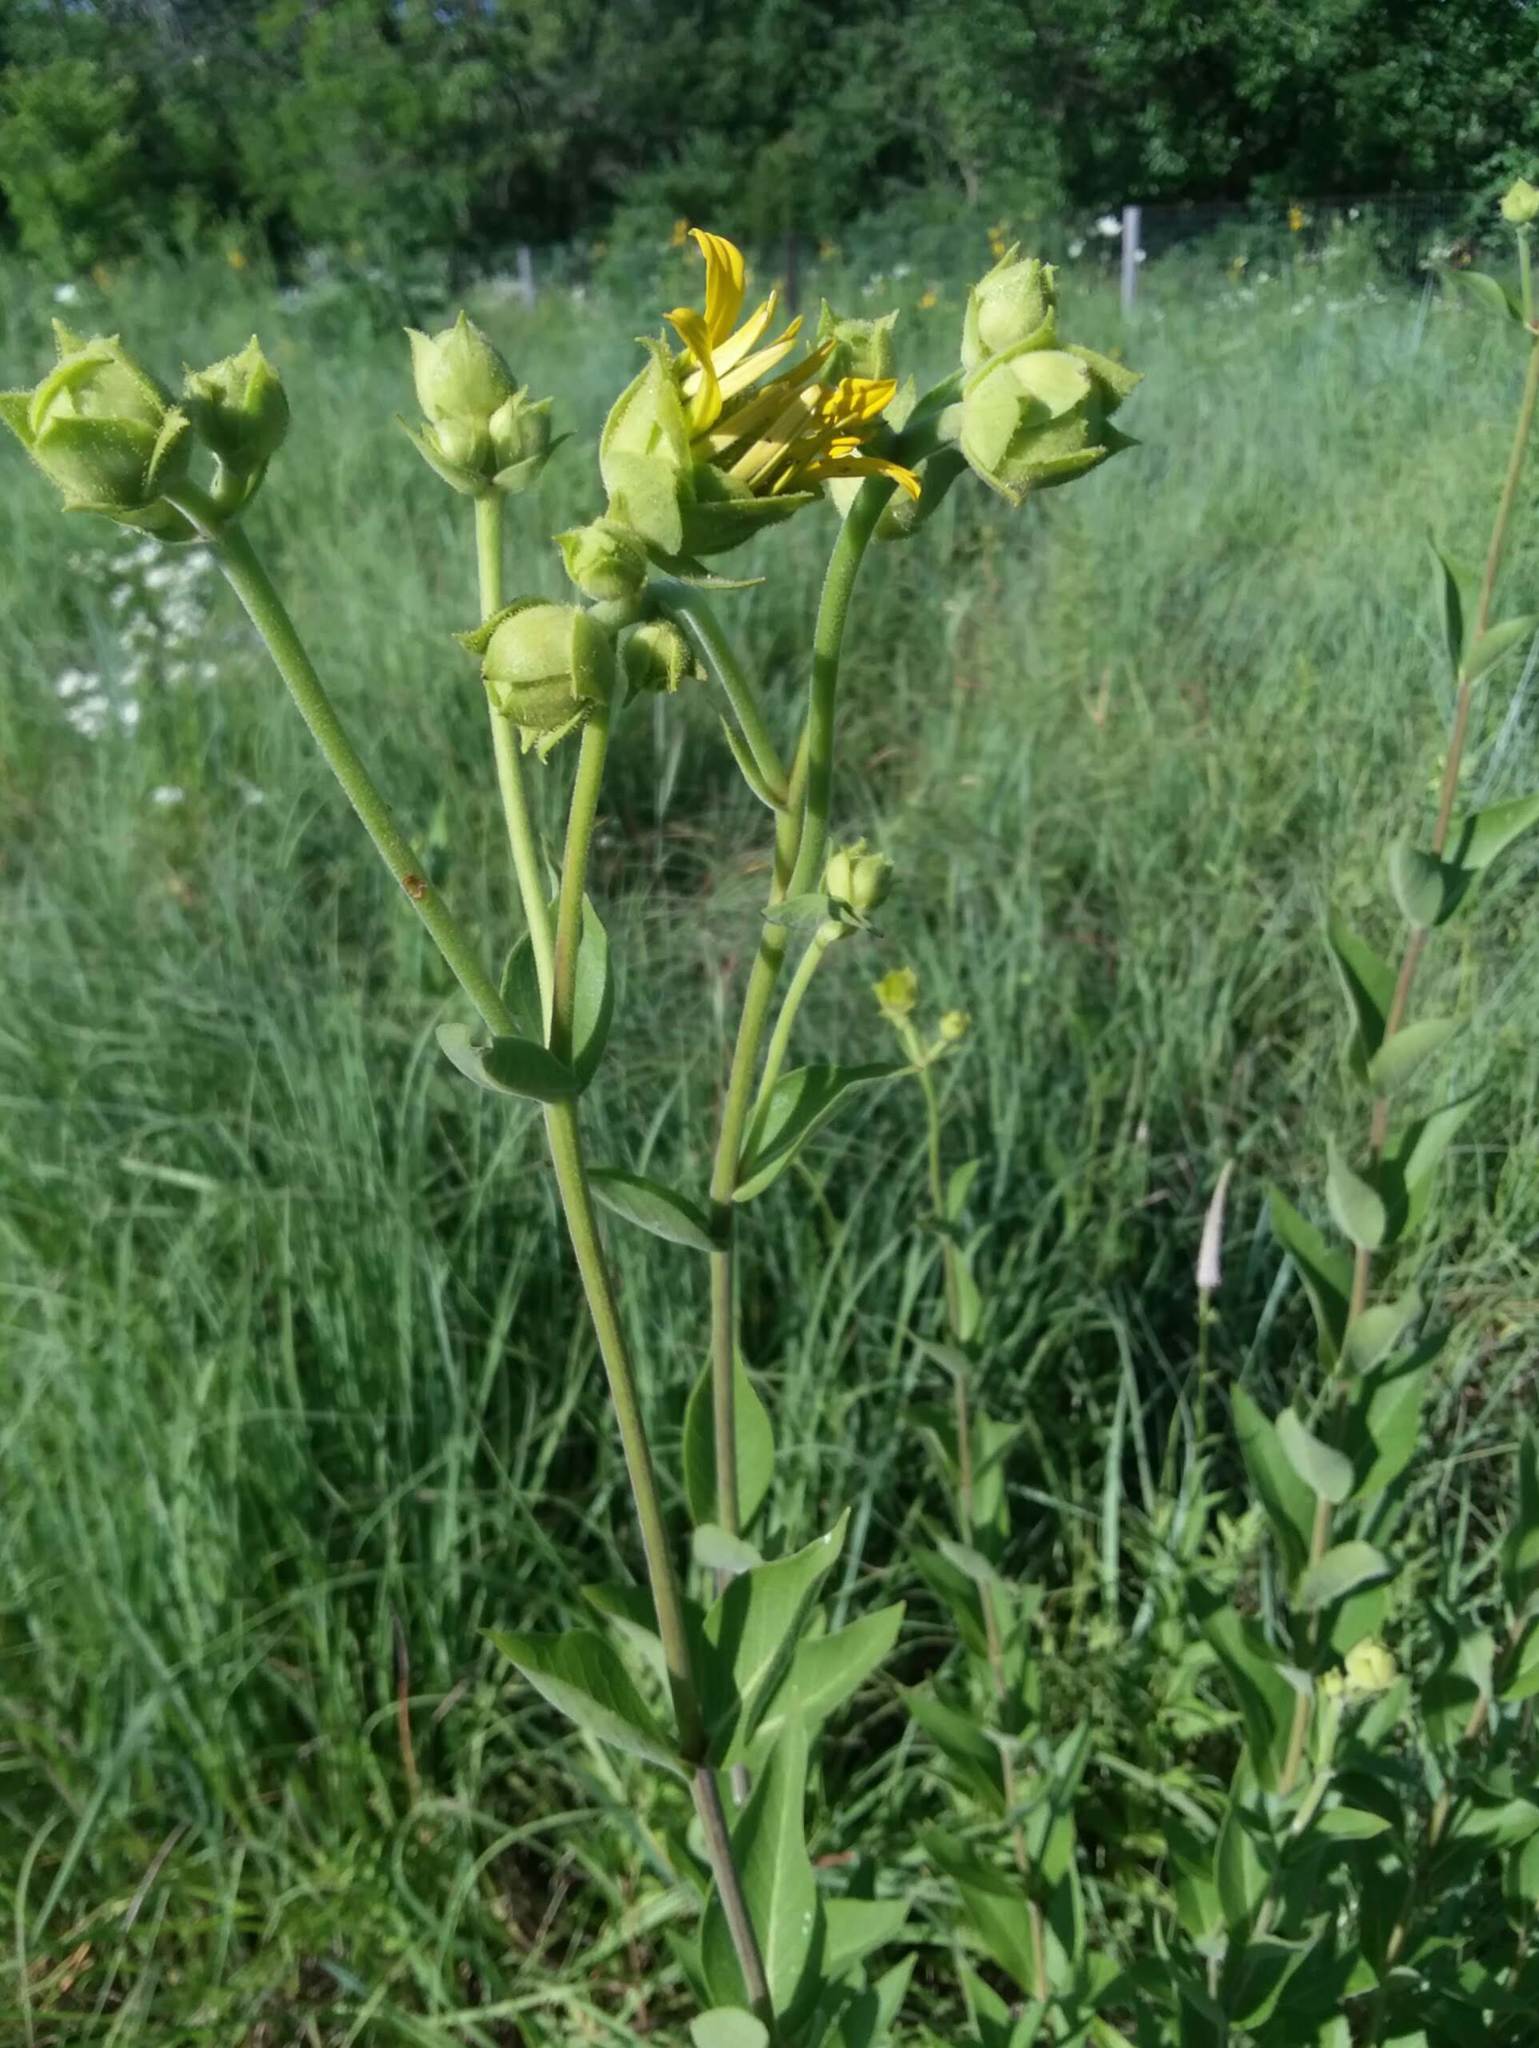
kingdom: Plantae
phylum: Tracheophyta
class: Magnoliopsida
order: Asterales
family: Asteraceae
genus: Silphium
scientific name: Silphium integrifolium
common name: Whole-leaf rosinweed
